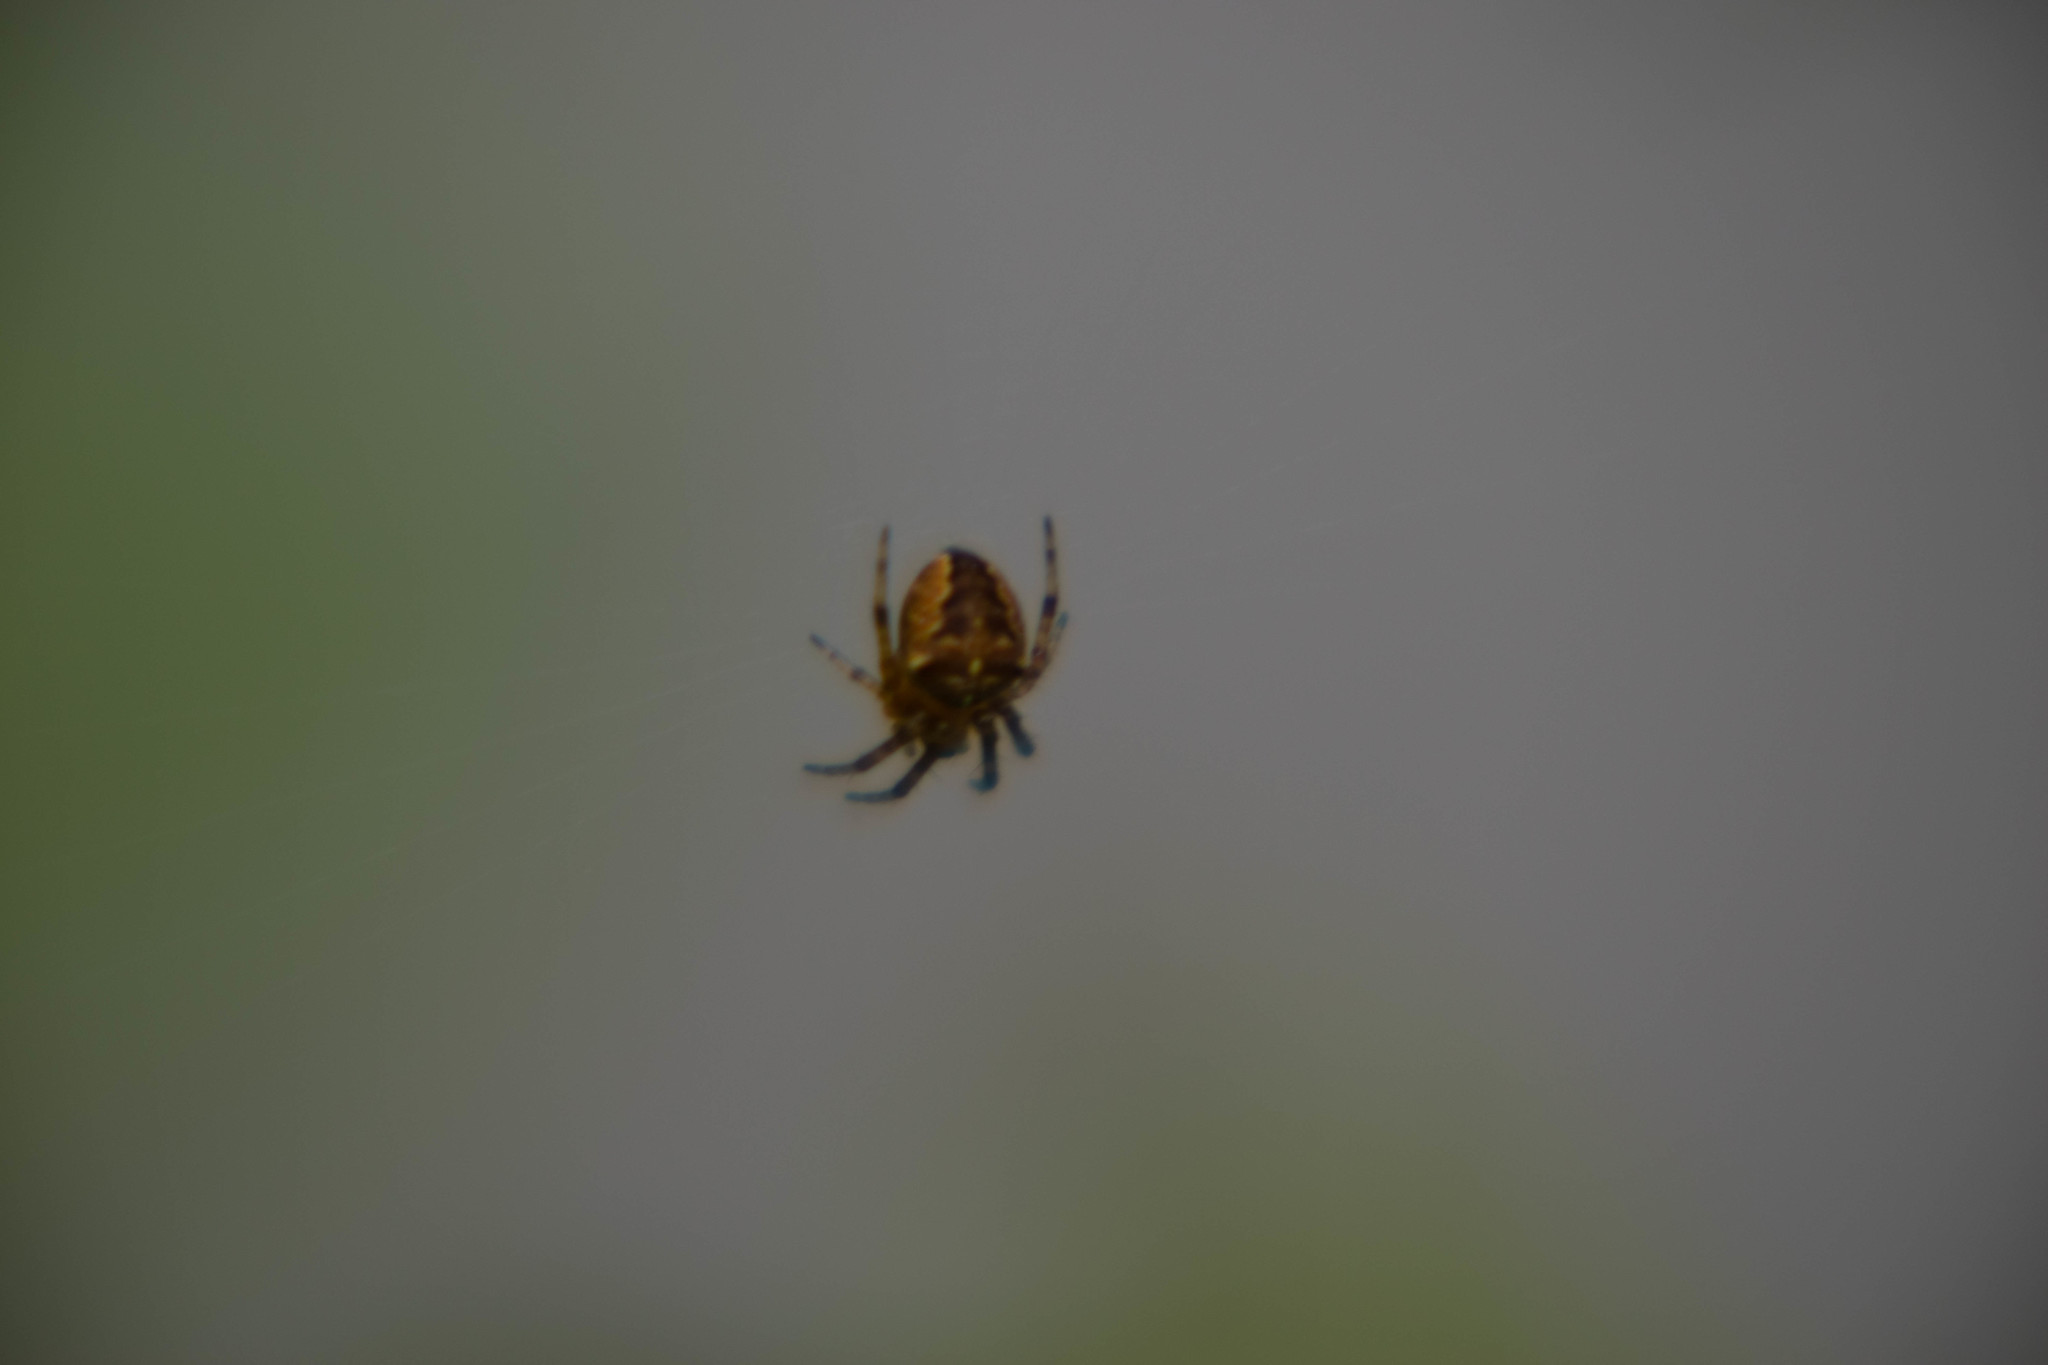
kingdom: Animalia
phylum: Arthropoda
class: Arachnida
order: Araneae
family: Araneidae
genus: Araneus
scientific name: Araneus diadematus
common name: Cross orbweaver
